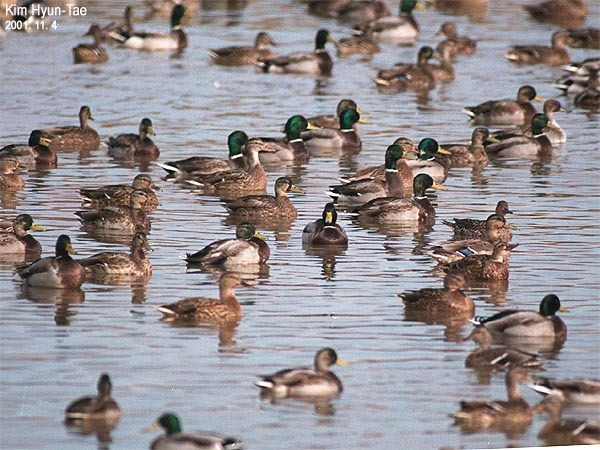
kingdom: Animalia
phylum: Chordata
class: Aves
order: Anseriformes
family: Anatidae
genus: Anas
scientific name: Anas platyrhynchos
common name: Mallard
